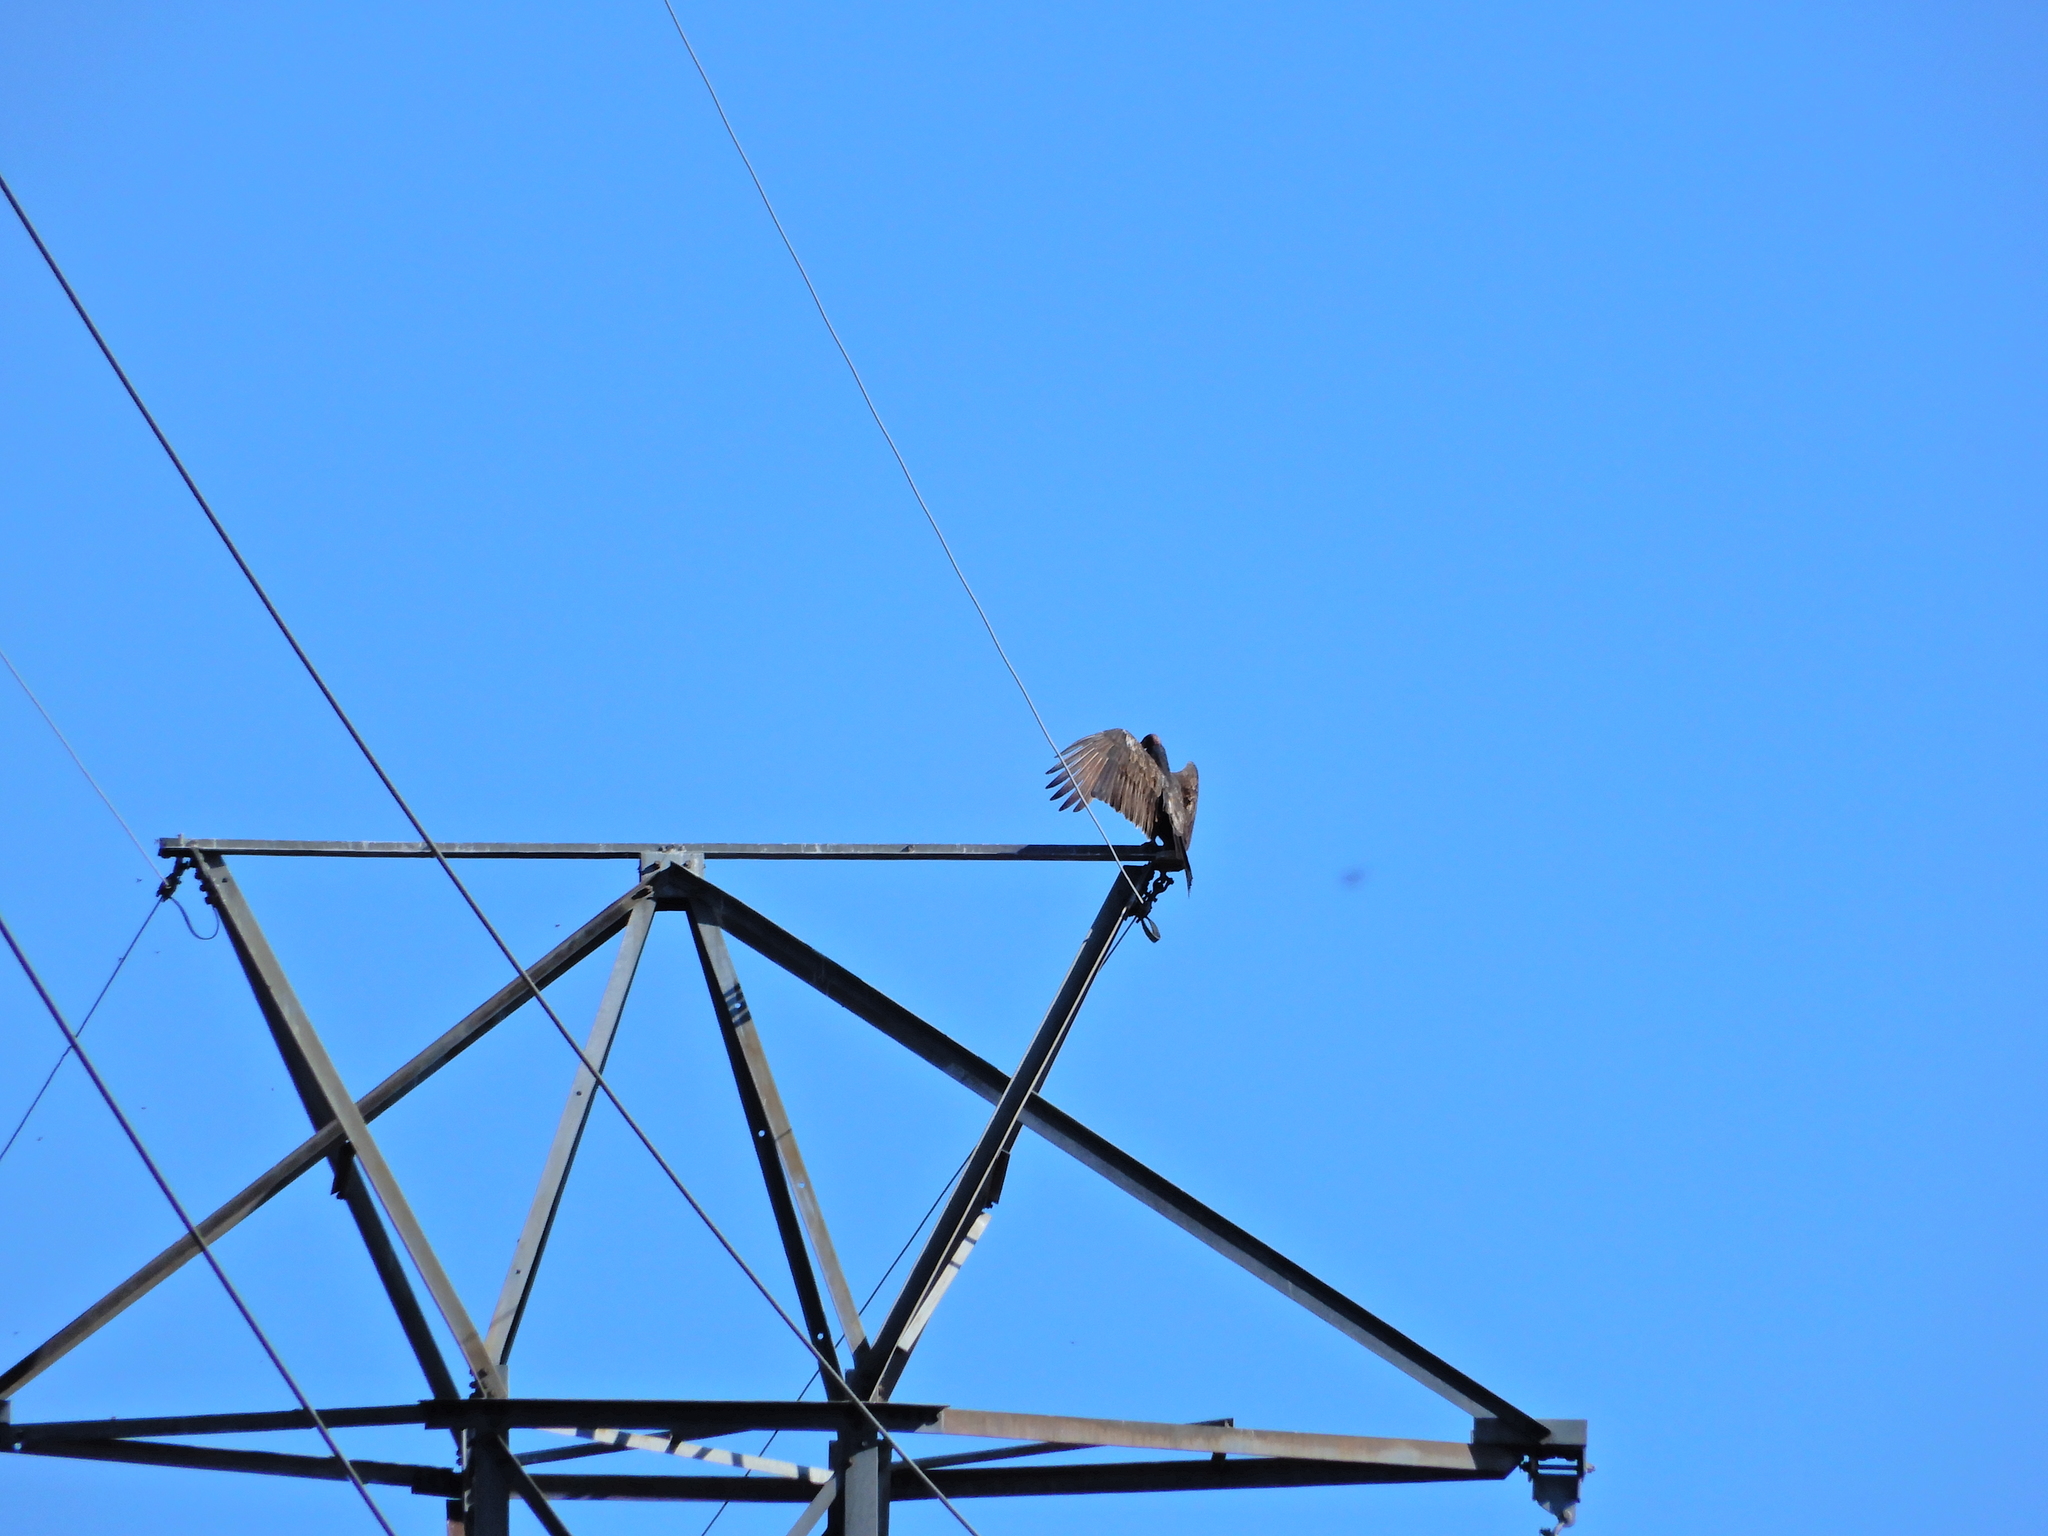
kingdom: Animalia
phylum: Chordata
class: Aves
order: Accipitriformes
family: Cathartidae
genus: Cathartes
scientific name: Cathartes aura
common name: Turkey vulture
